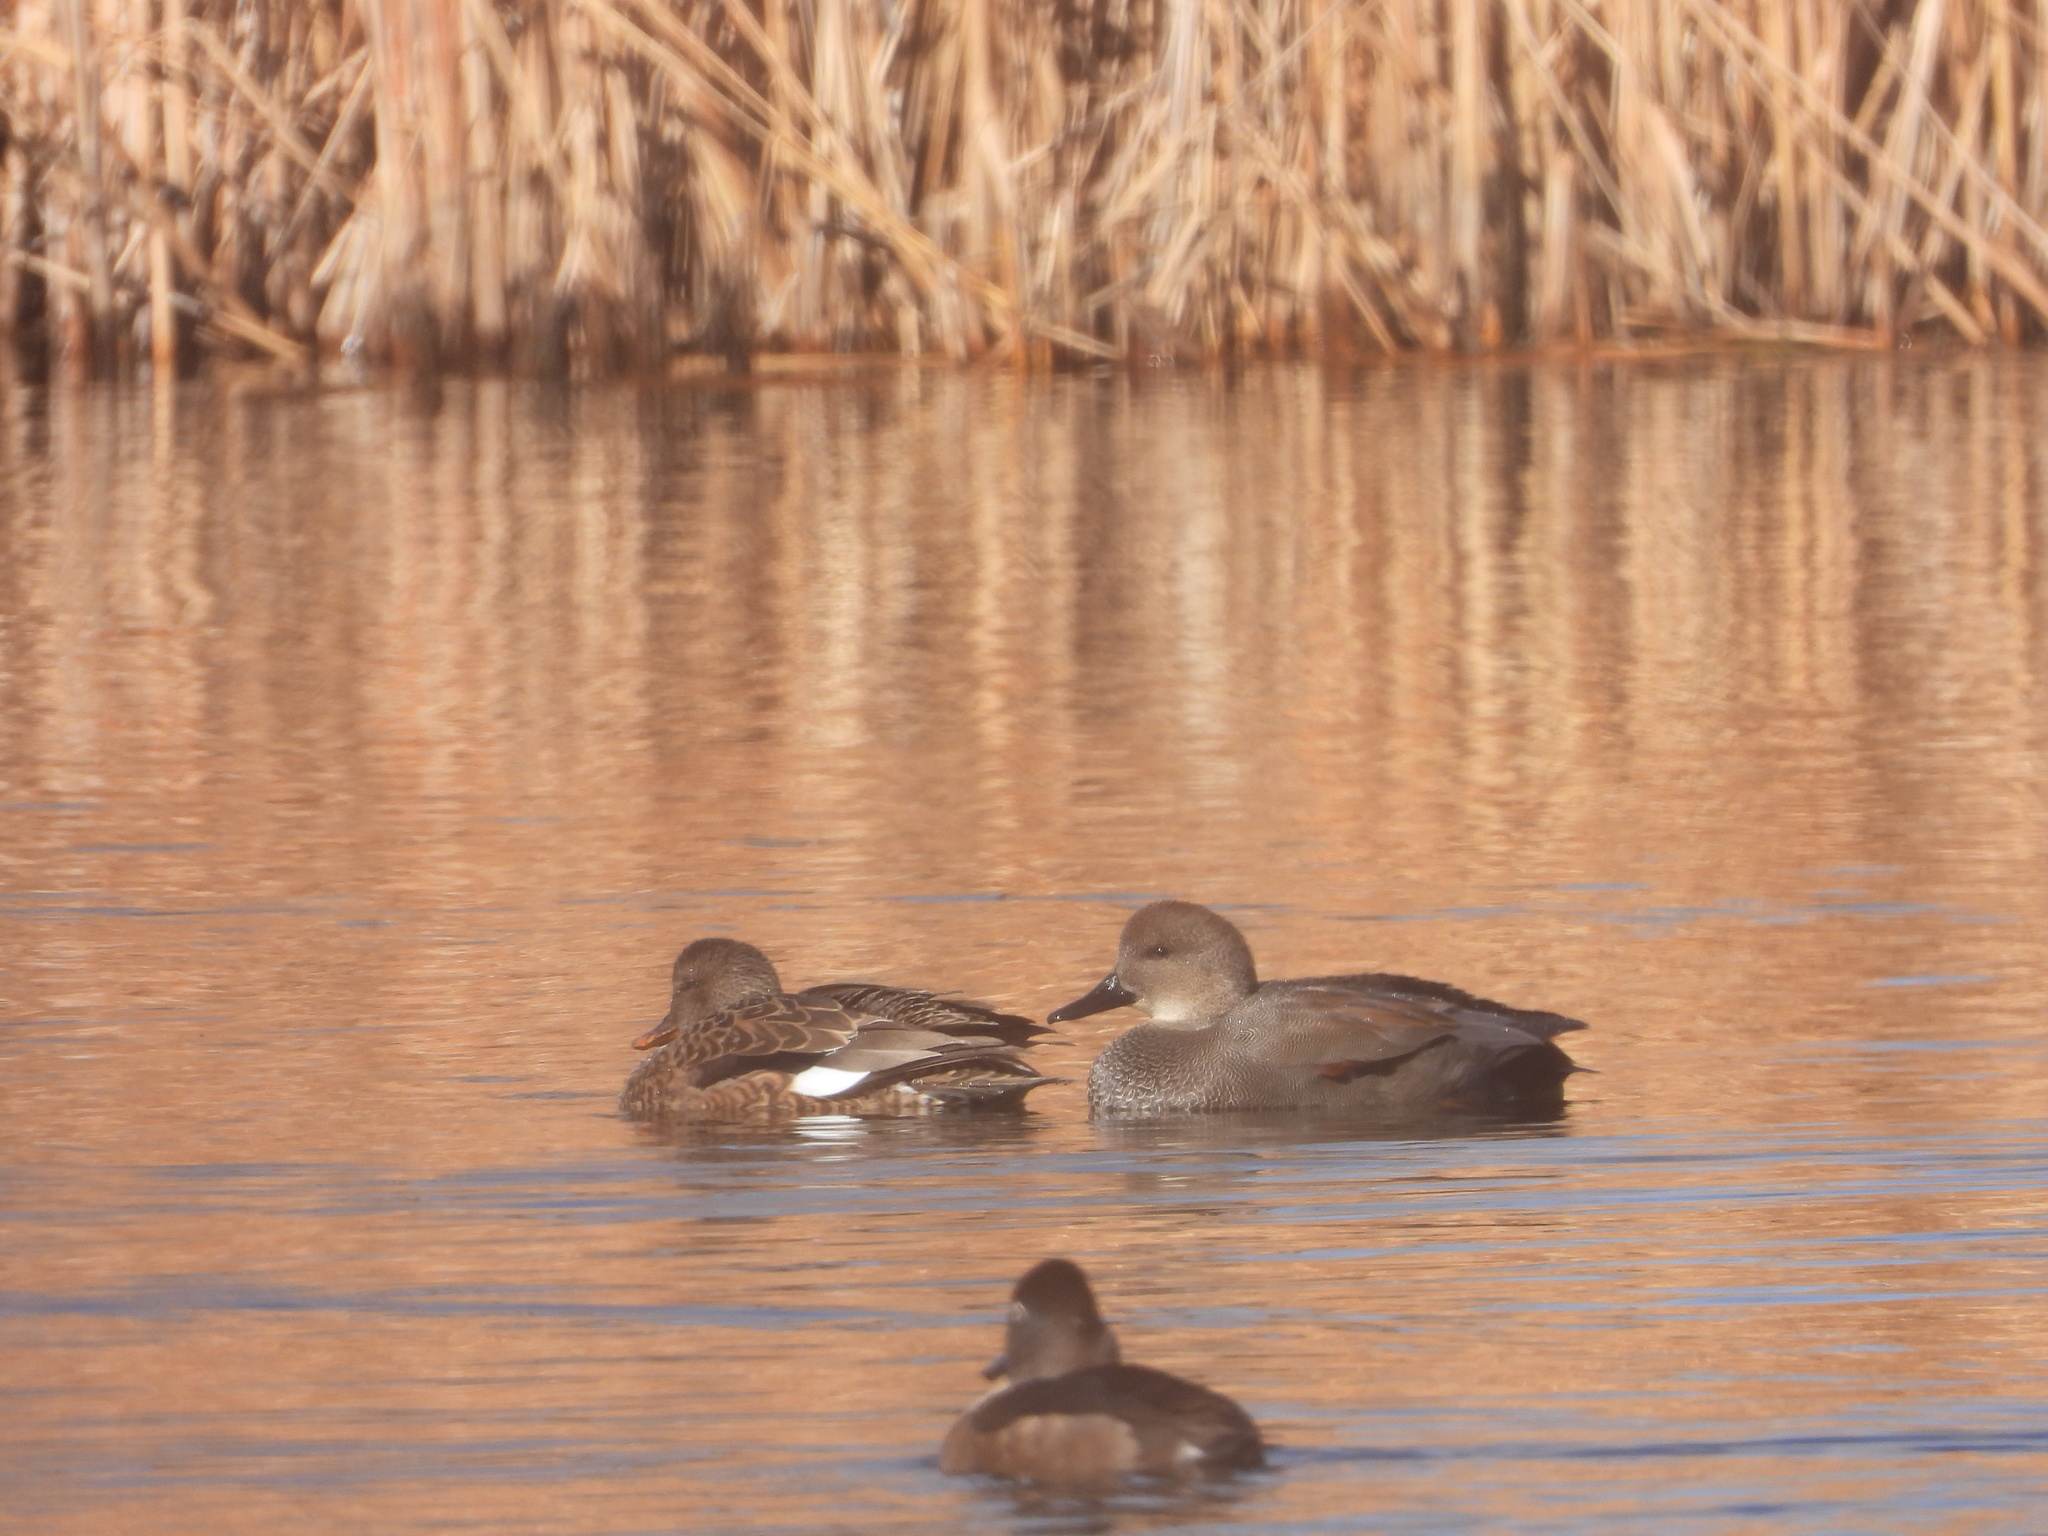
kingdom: Animalia
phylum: Chordata
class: Aves
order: Anseriformes
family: Anatidae
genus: Mareca
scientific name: Mareca strepera
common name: Gadwall
